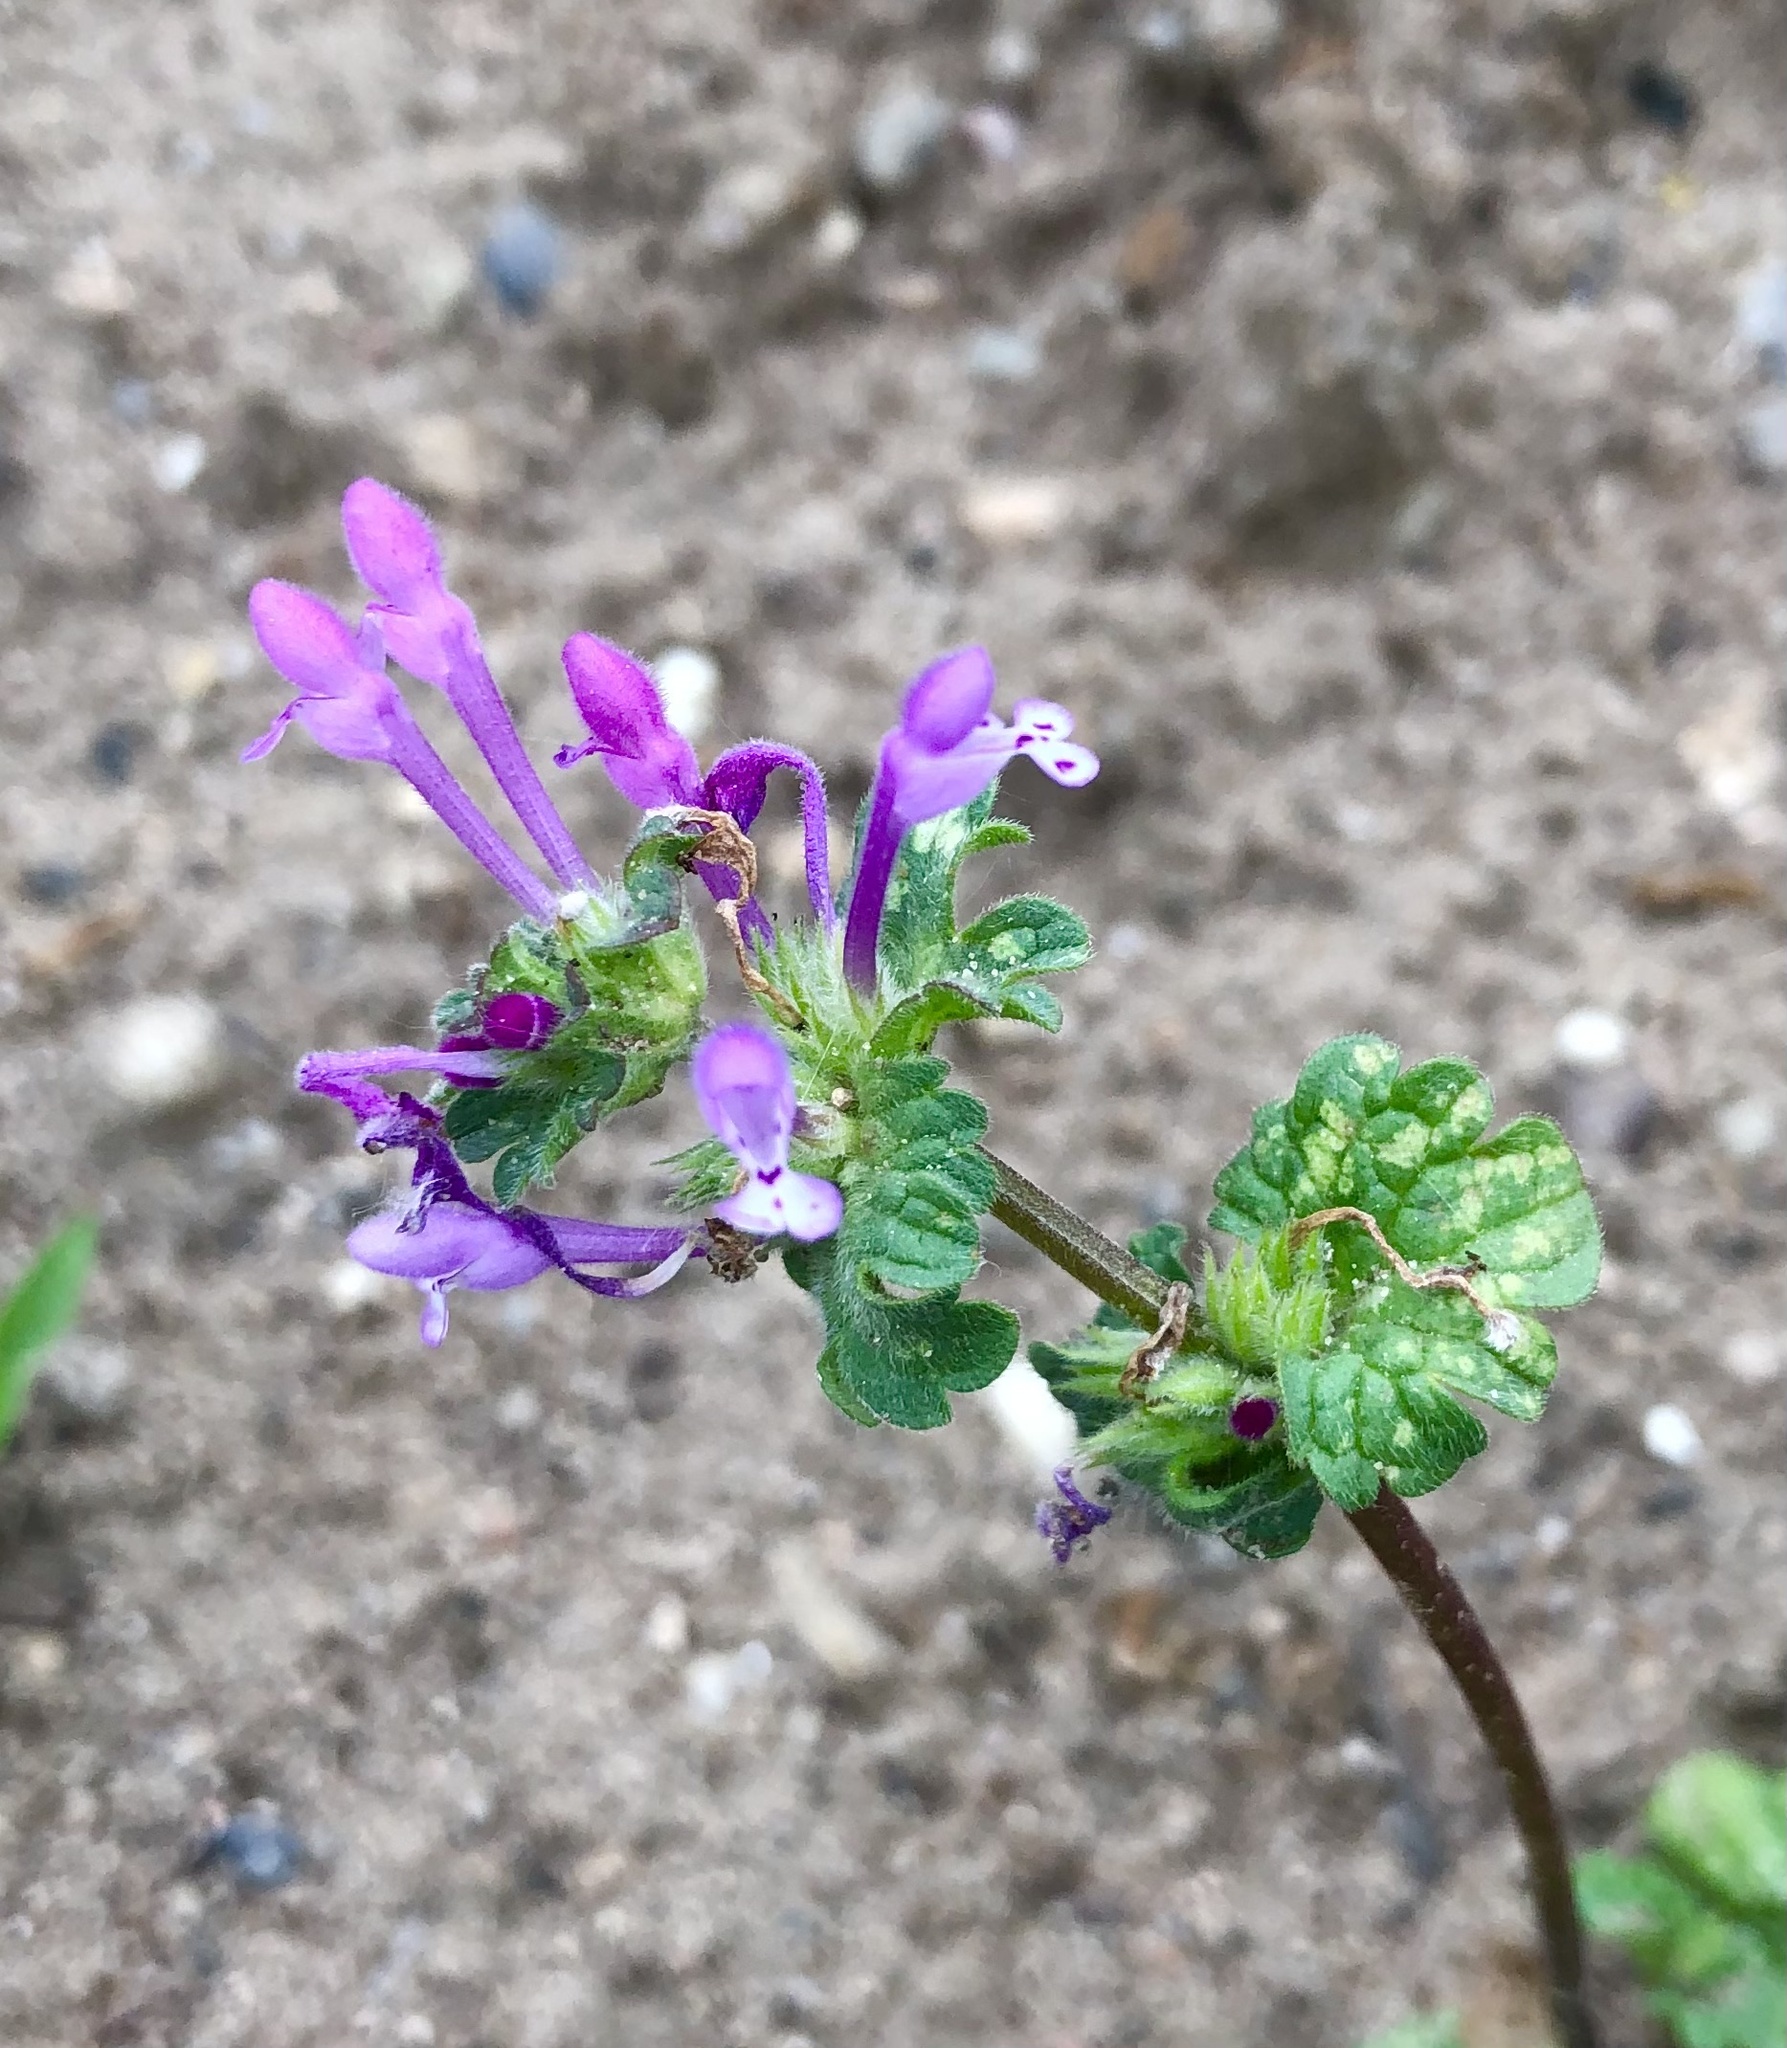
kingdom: Plantae
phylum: Tracheophyta
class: Magnoliopsida
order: Lamiales
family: Lamiaceae
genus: Lamium
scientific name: Lamium amplexicaule
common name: Henbit dead-nettle
